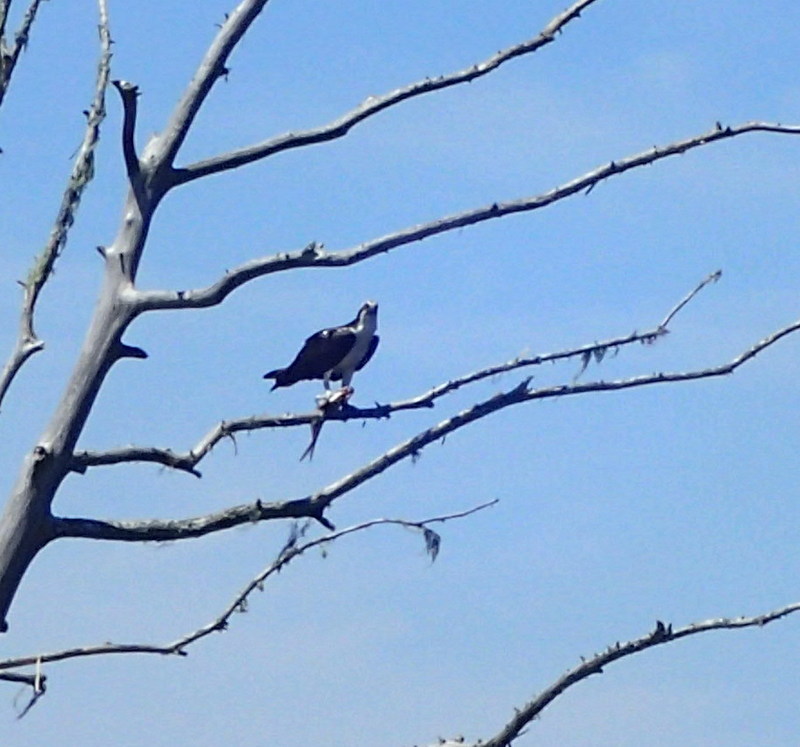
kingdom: Animalia
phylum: Chordata
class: Aves
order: Accipitriformes
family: Pandionidae
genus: Pandion
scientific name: Pandion haliaetus
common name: Osprey
